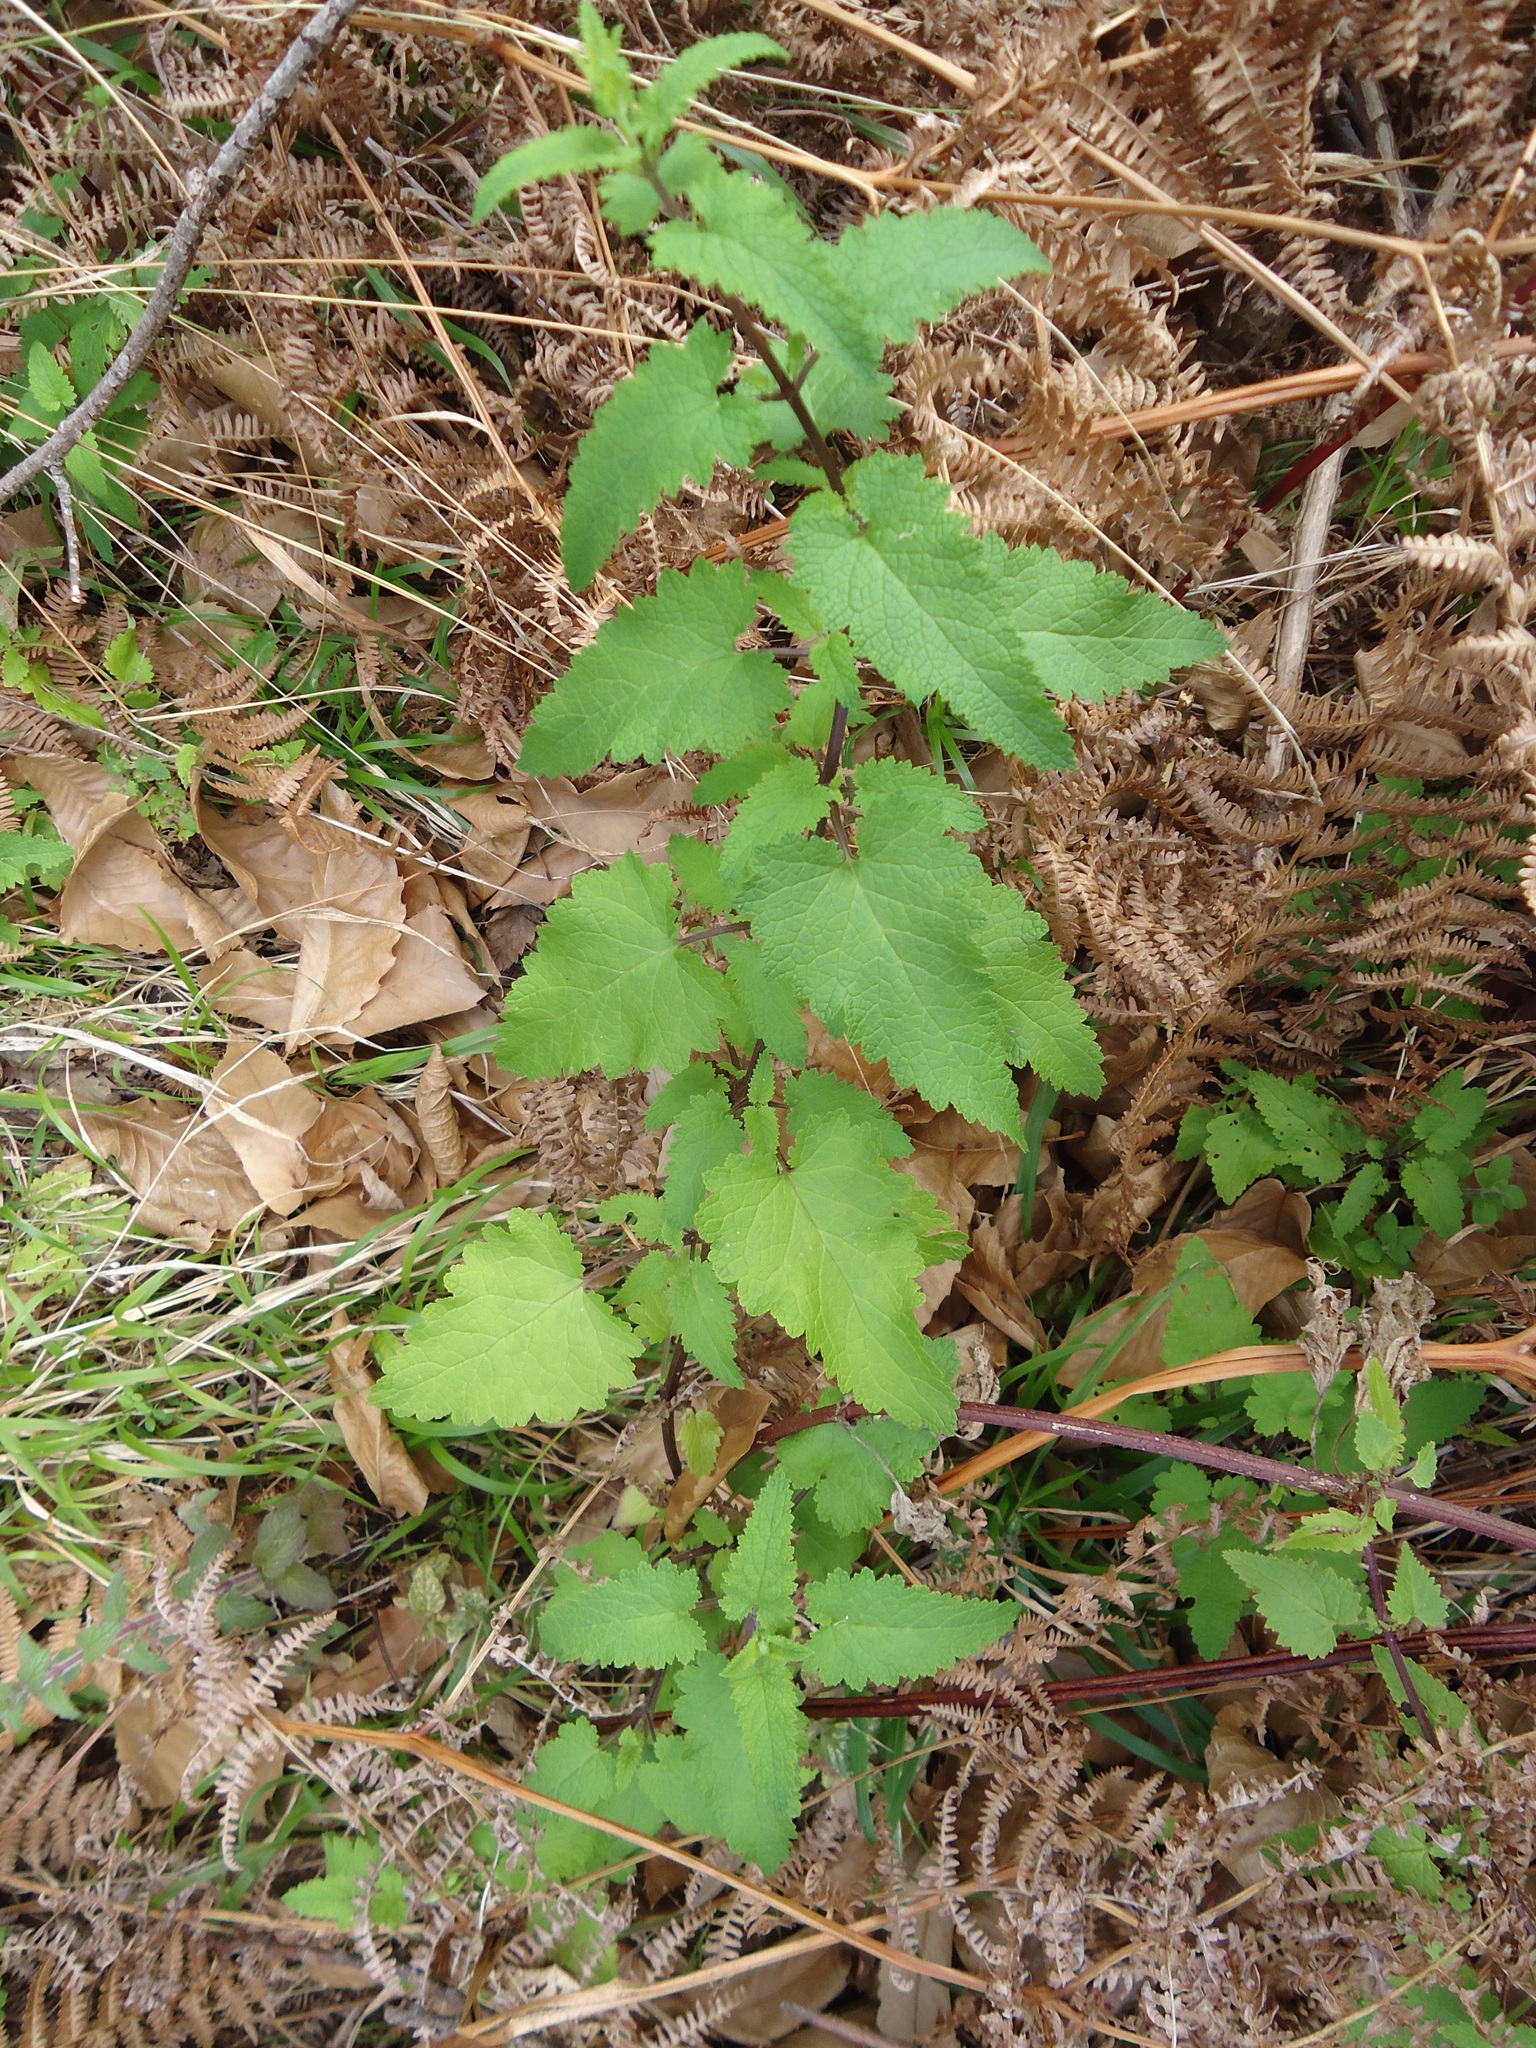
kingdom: Plantae
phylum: Tracheophyta
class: Magnoliopsida
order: Lamiales
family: Scrophulariaceae
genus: Scrophularia
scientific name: Scrophularia scorodonia
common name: Balm-leaved figwort
